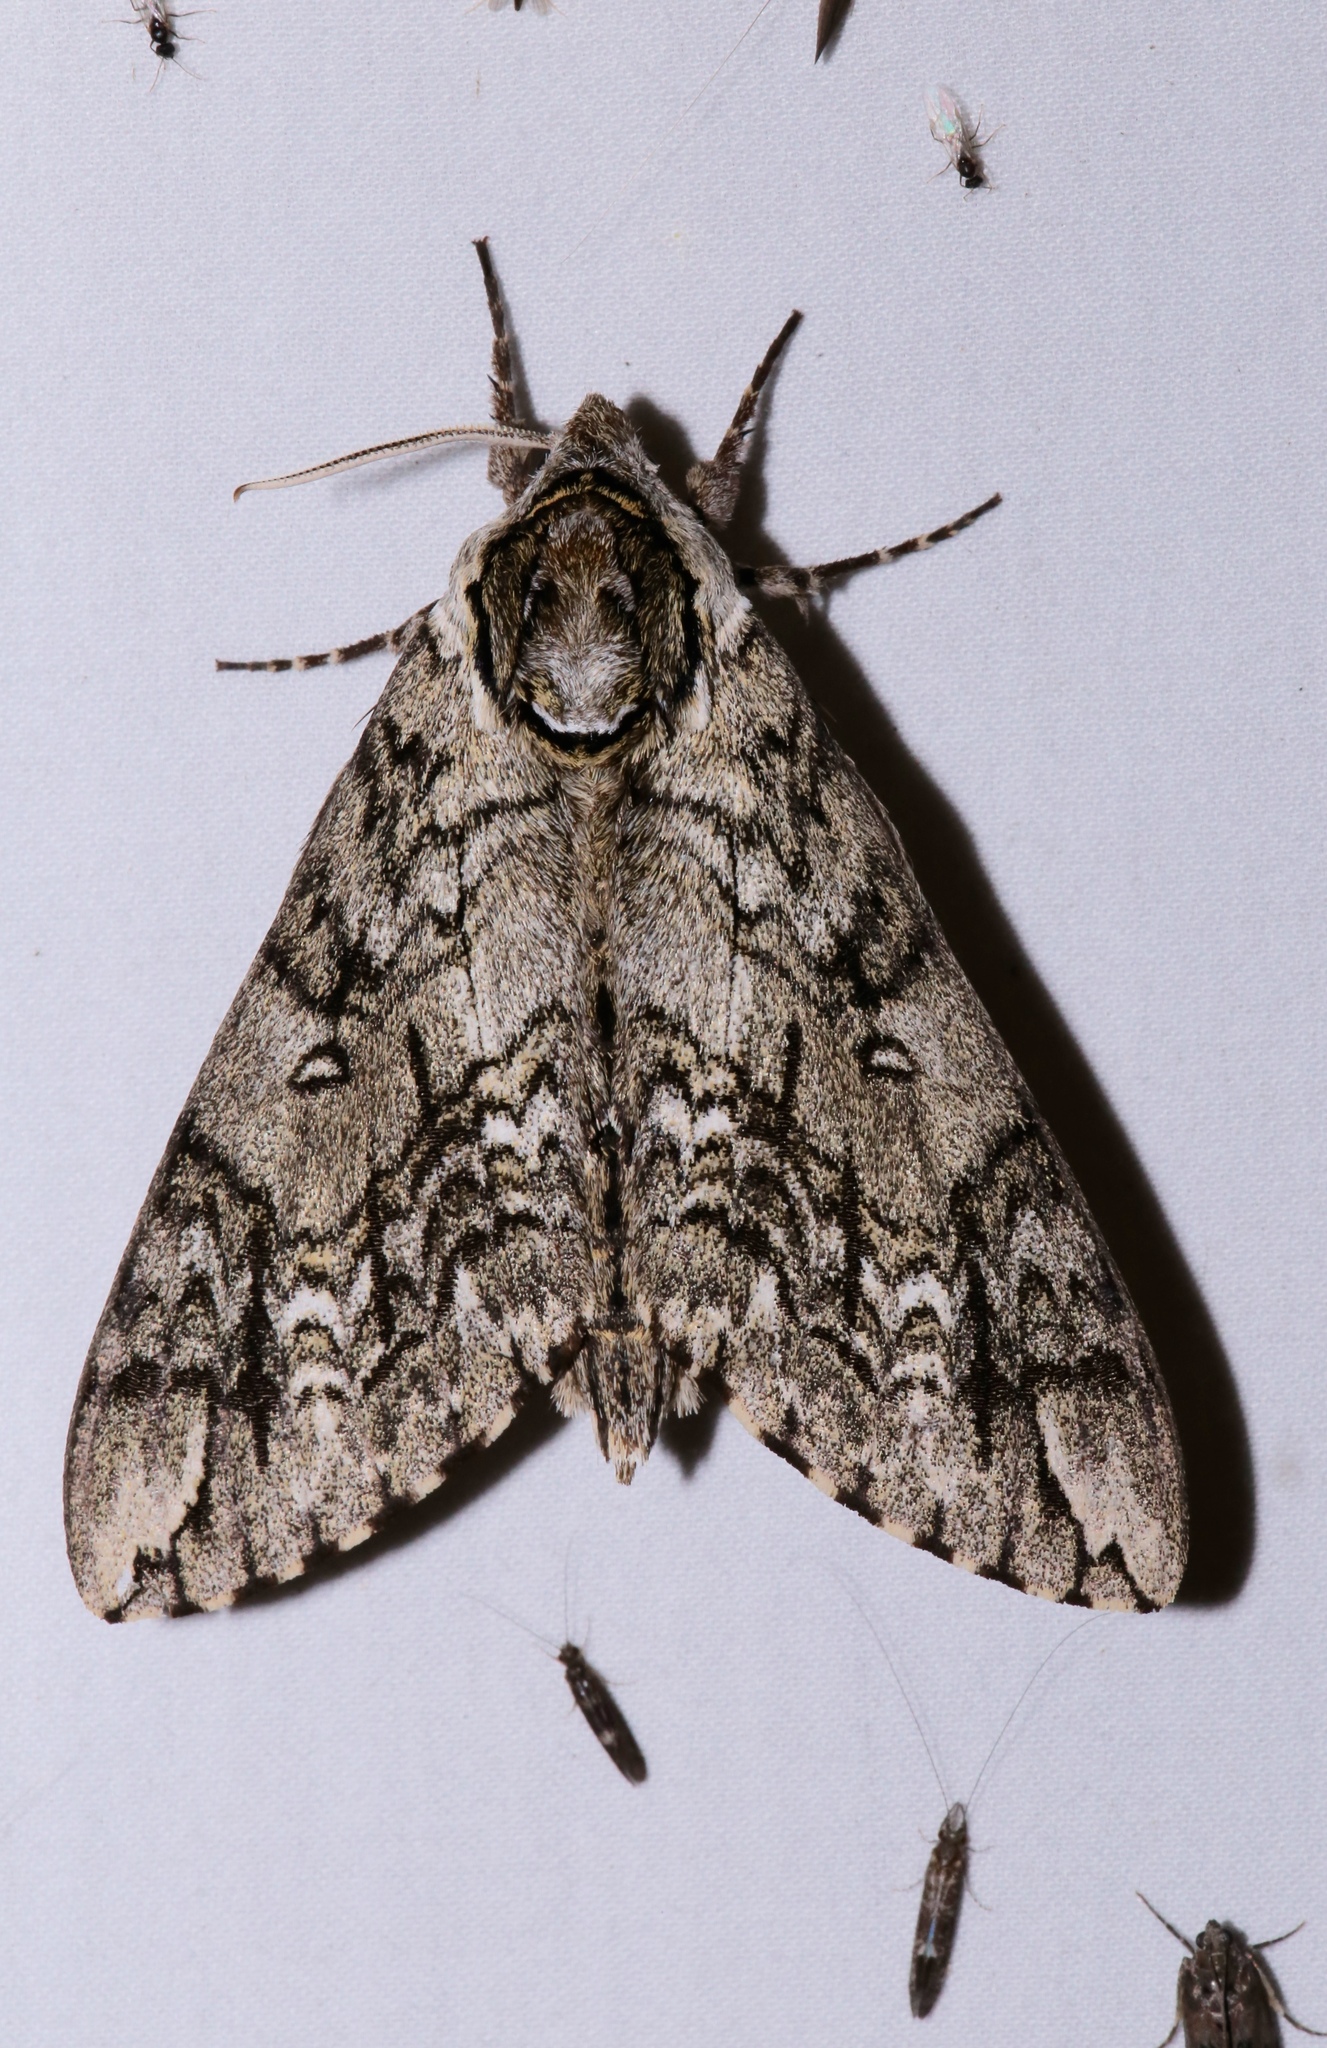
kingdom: Animalia
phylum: Arthropoda
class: Insecta
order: Lepidoptera
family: Sphingidae
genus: Ceratomia
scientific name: Ceratomia undulosa
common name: Waved sphinx
